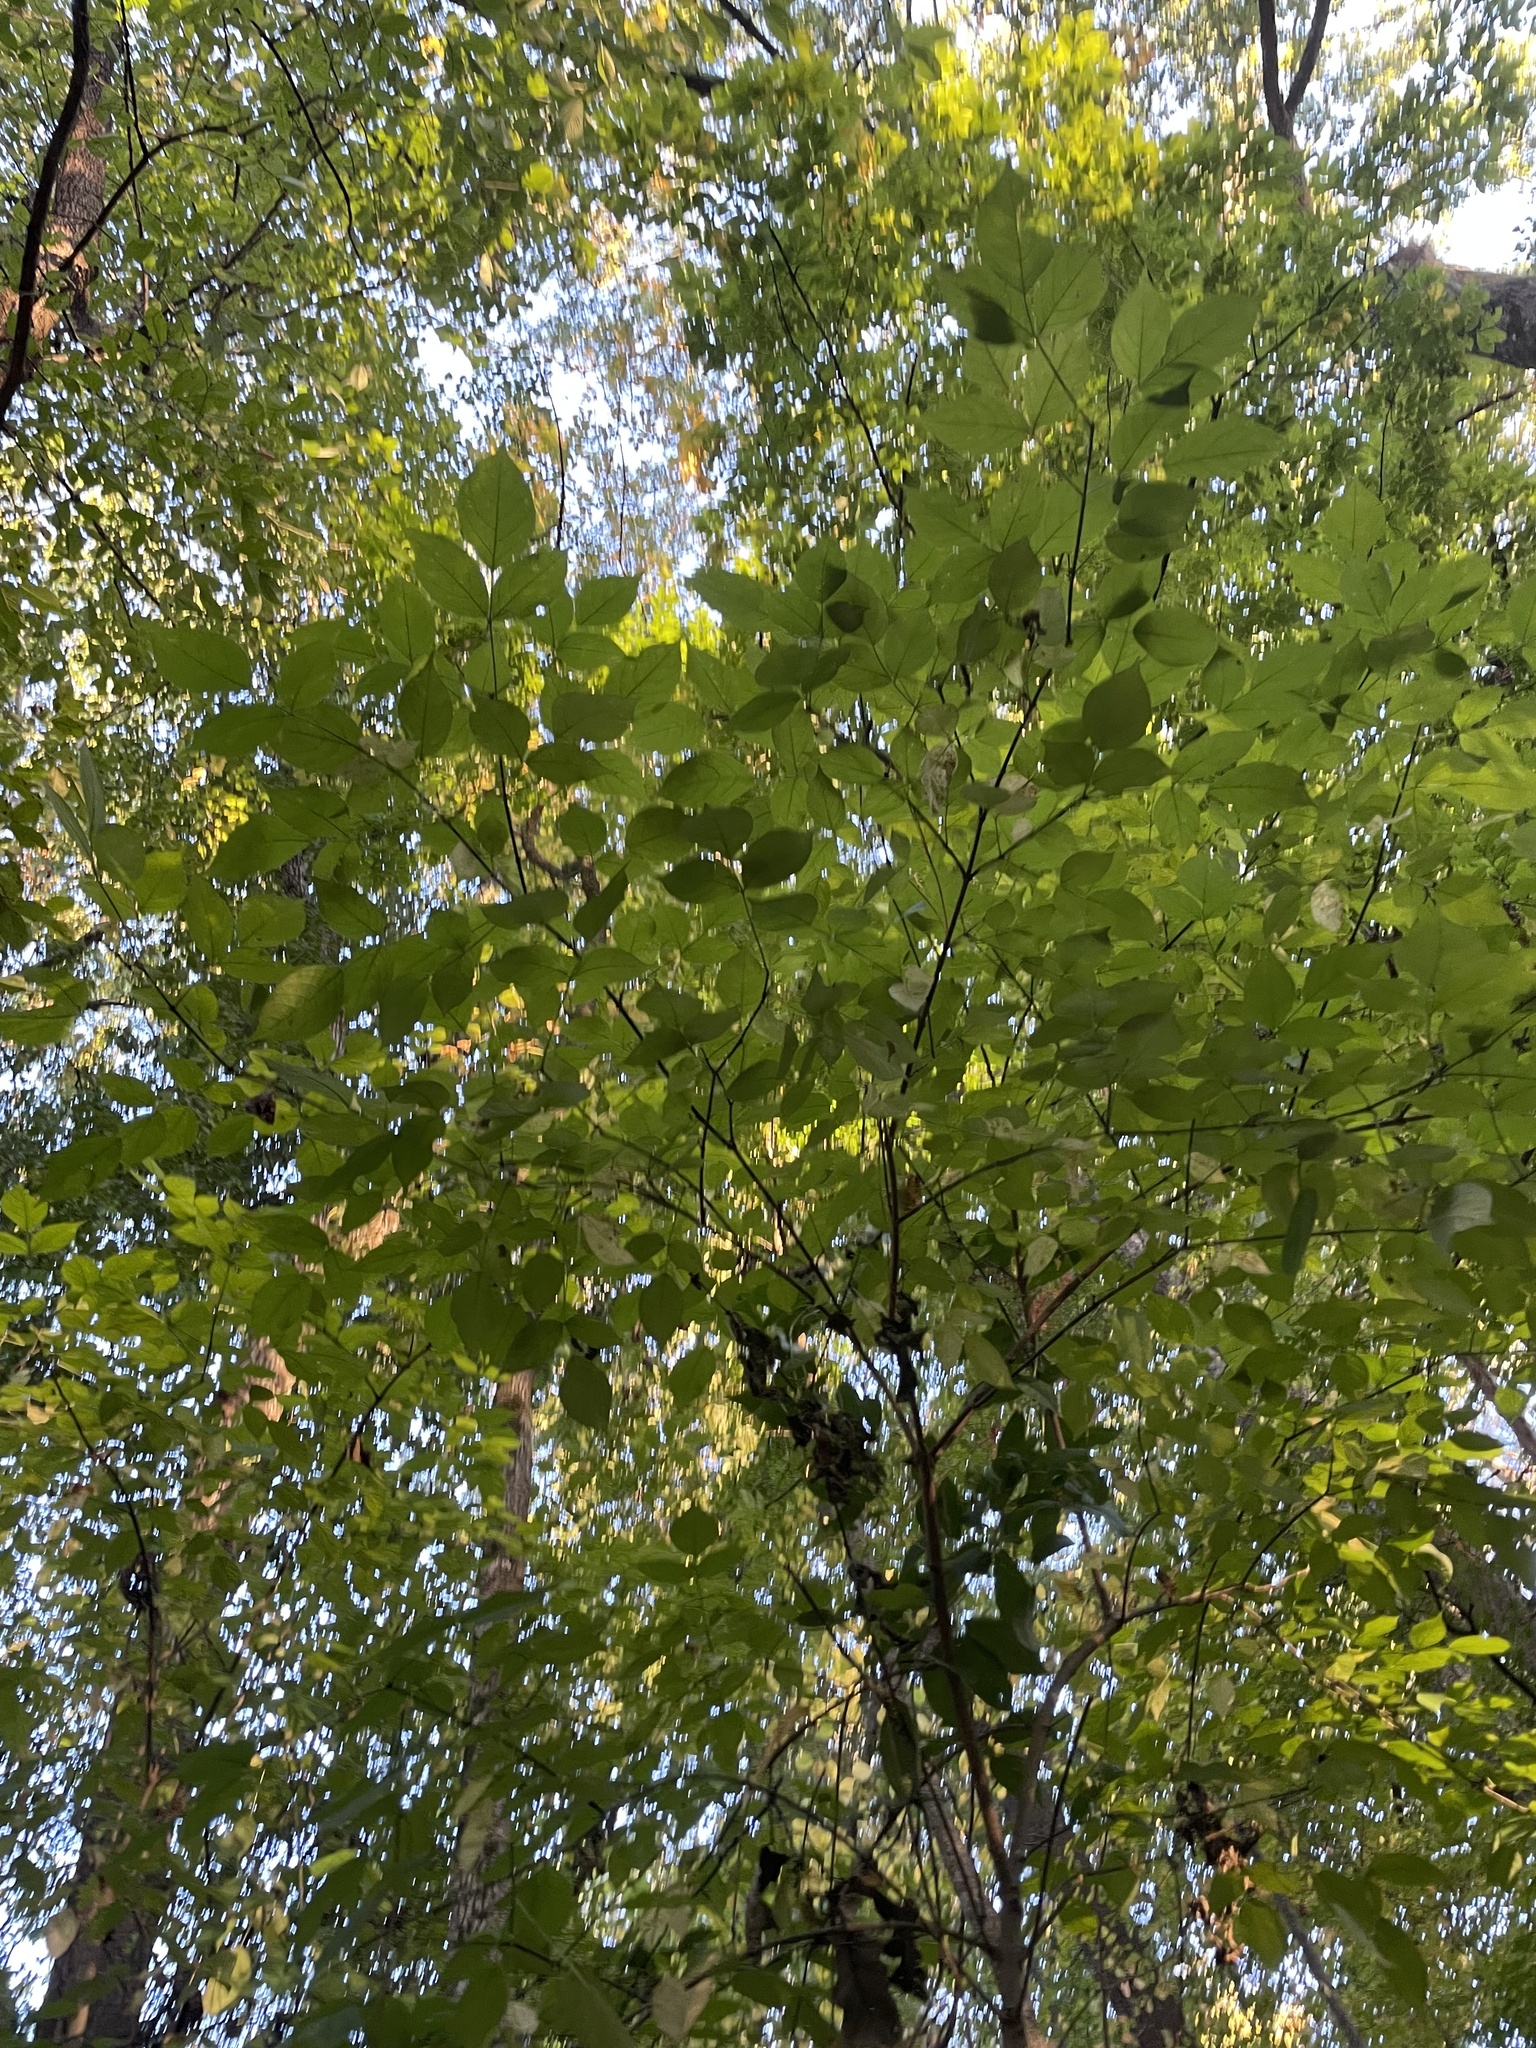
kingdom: Plantae
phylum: Tracheophyta
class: Magnoliopsida
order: Crossosomatales
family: Staphyleaceae
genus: Staphylea
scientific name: Staphylea trifolia
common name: American bladdernut
